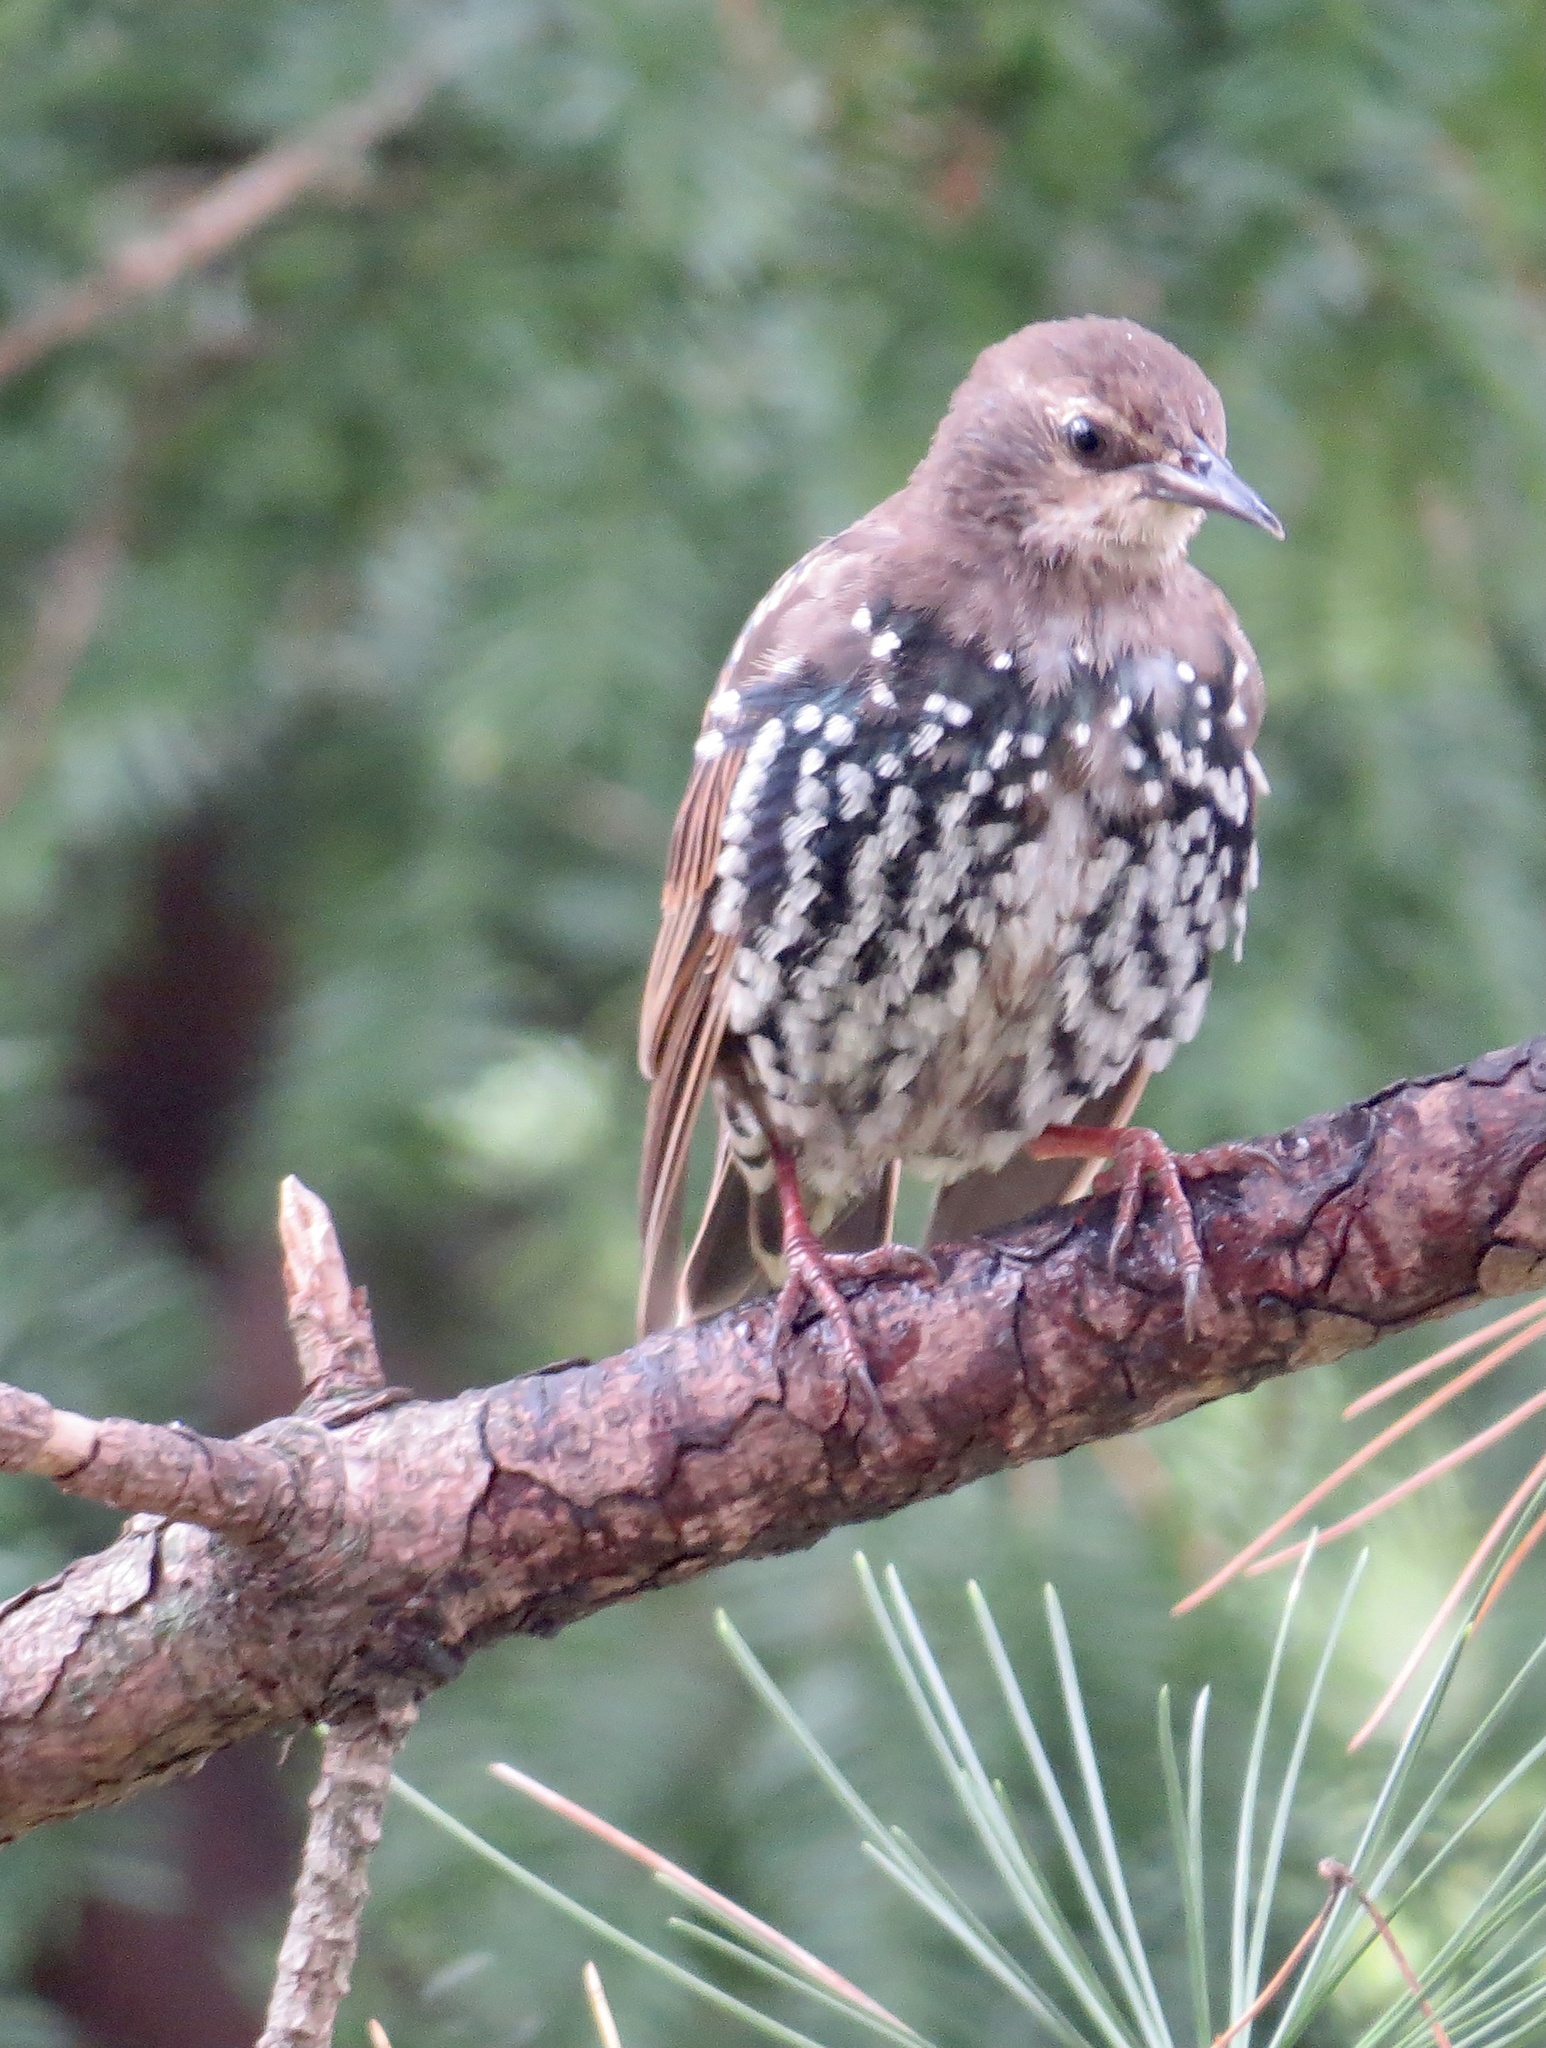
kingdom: Animalia
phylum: Chordata
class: Aves
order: Passeriformes
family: Sturnidae
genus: Sturnus
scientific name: Sturnus vulgaris
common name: Common starling
